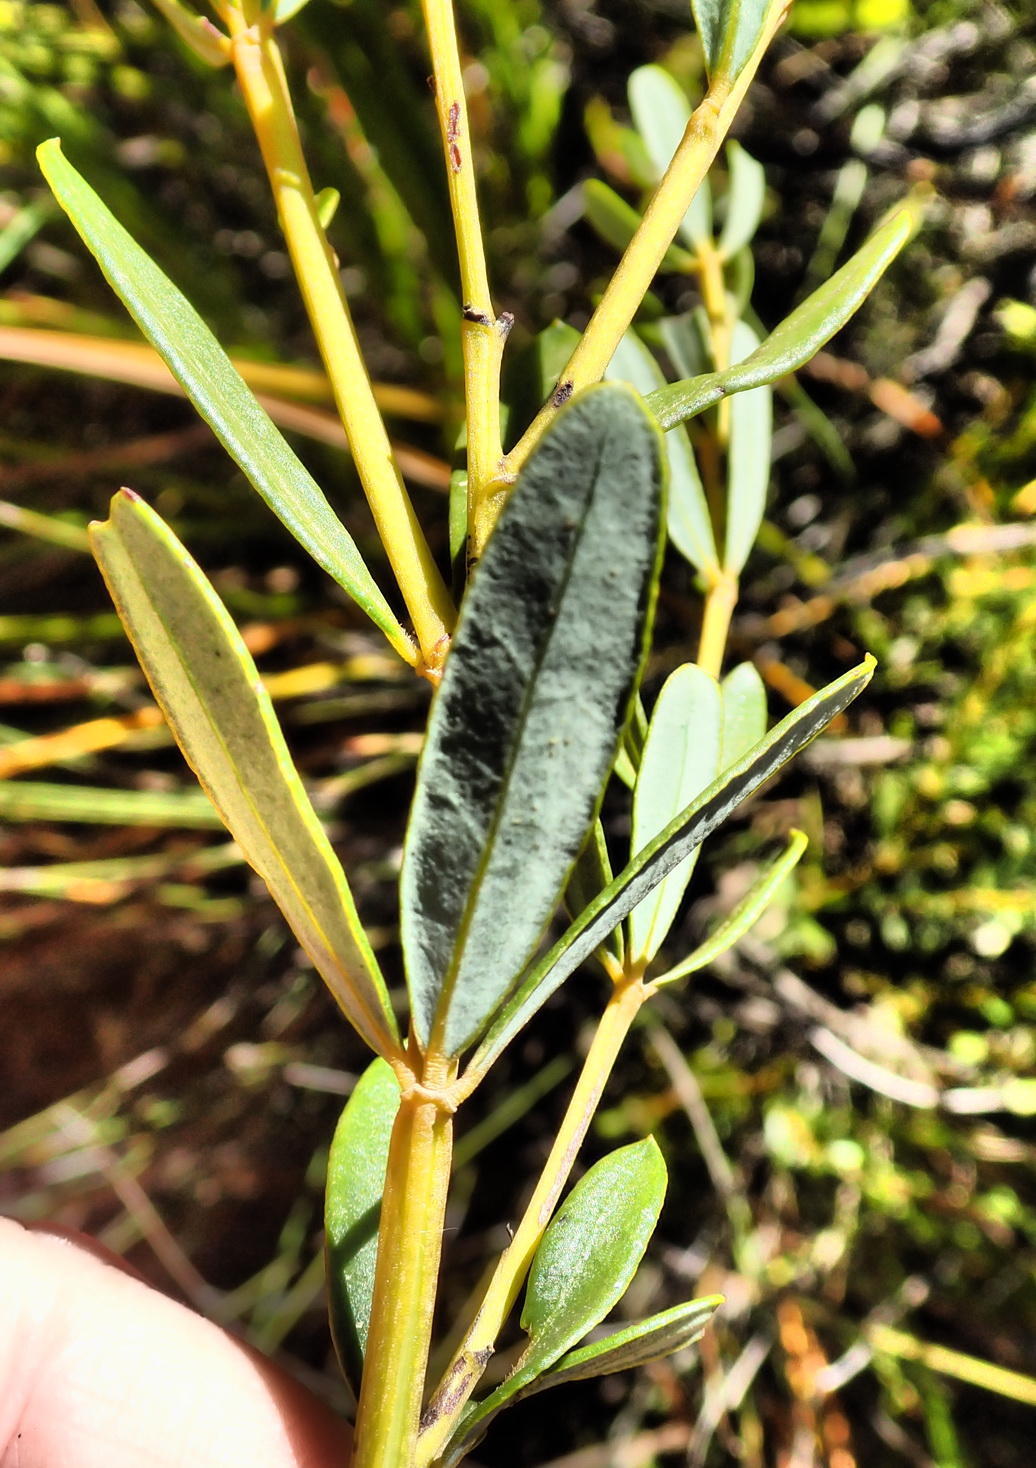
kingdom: Plantae
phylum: Tracheophyta
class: Magnoliopsida
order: Fabales
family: Fabaceae
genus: Cyclopia
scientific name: Cyclopia intermedia
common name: Mountain tea
